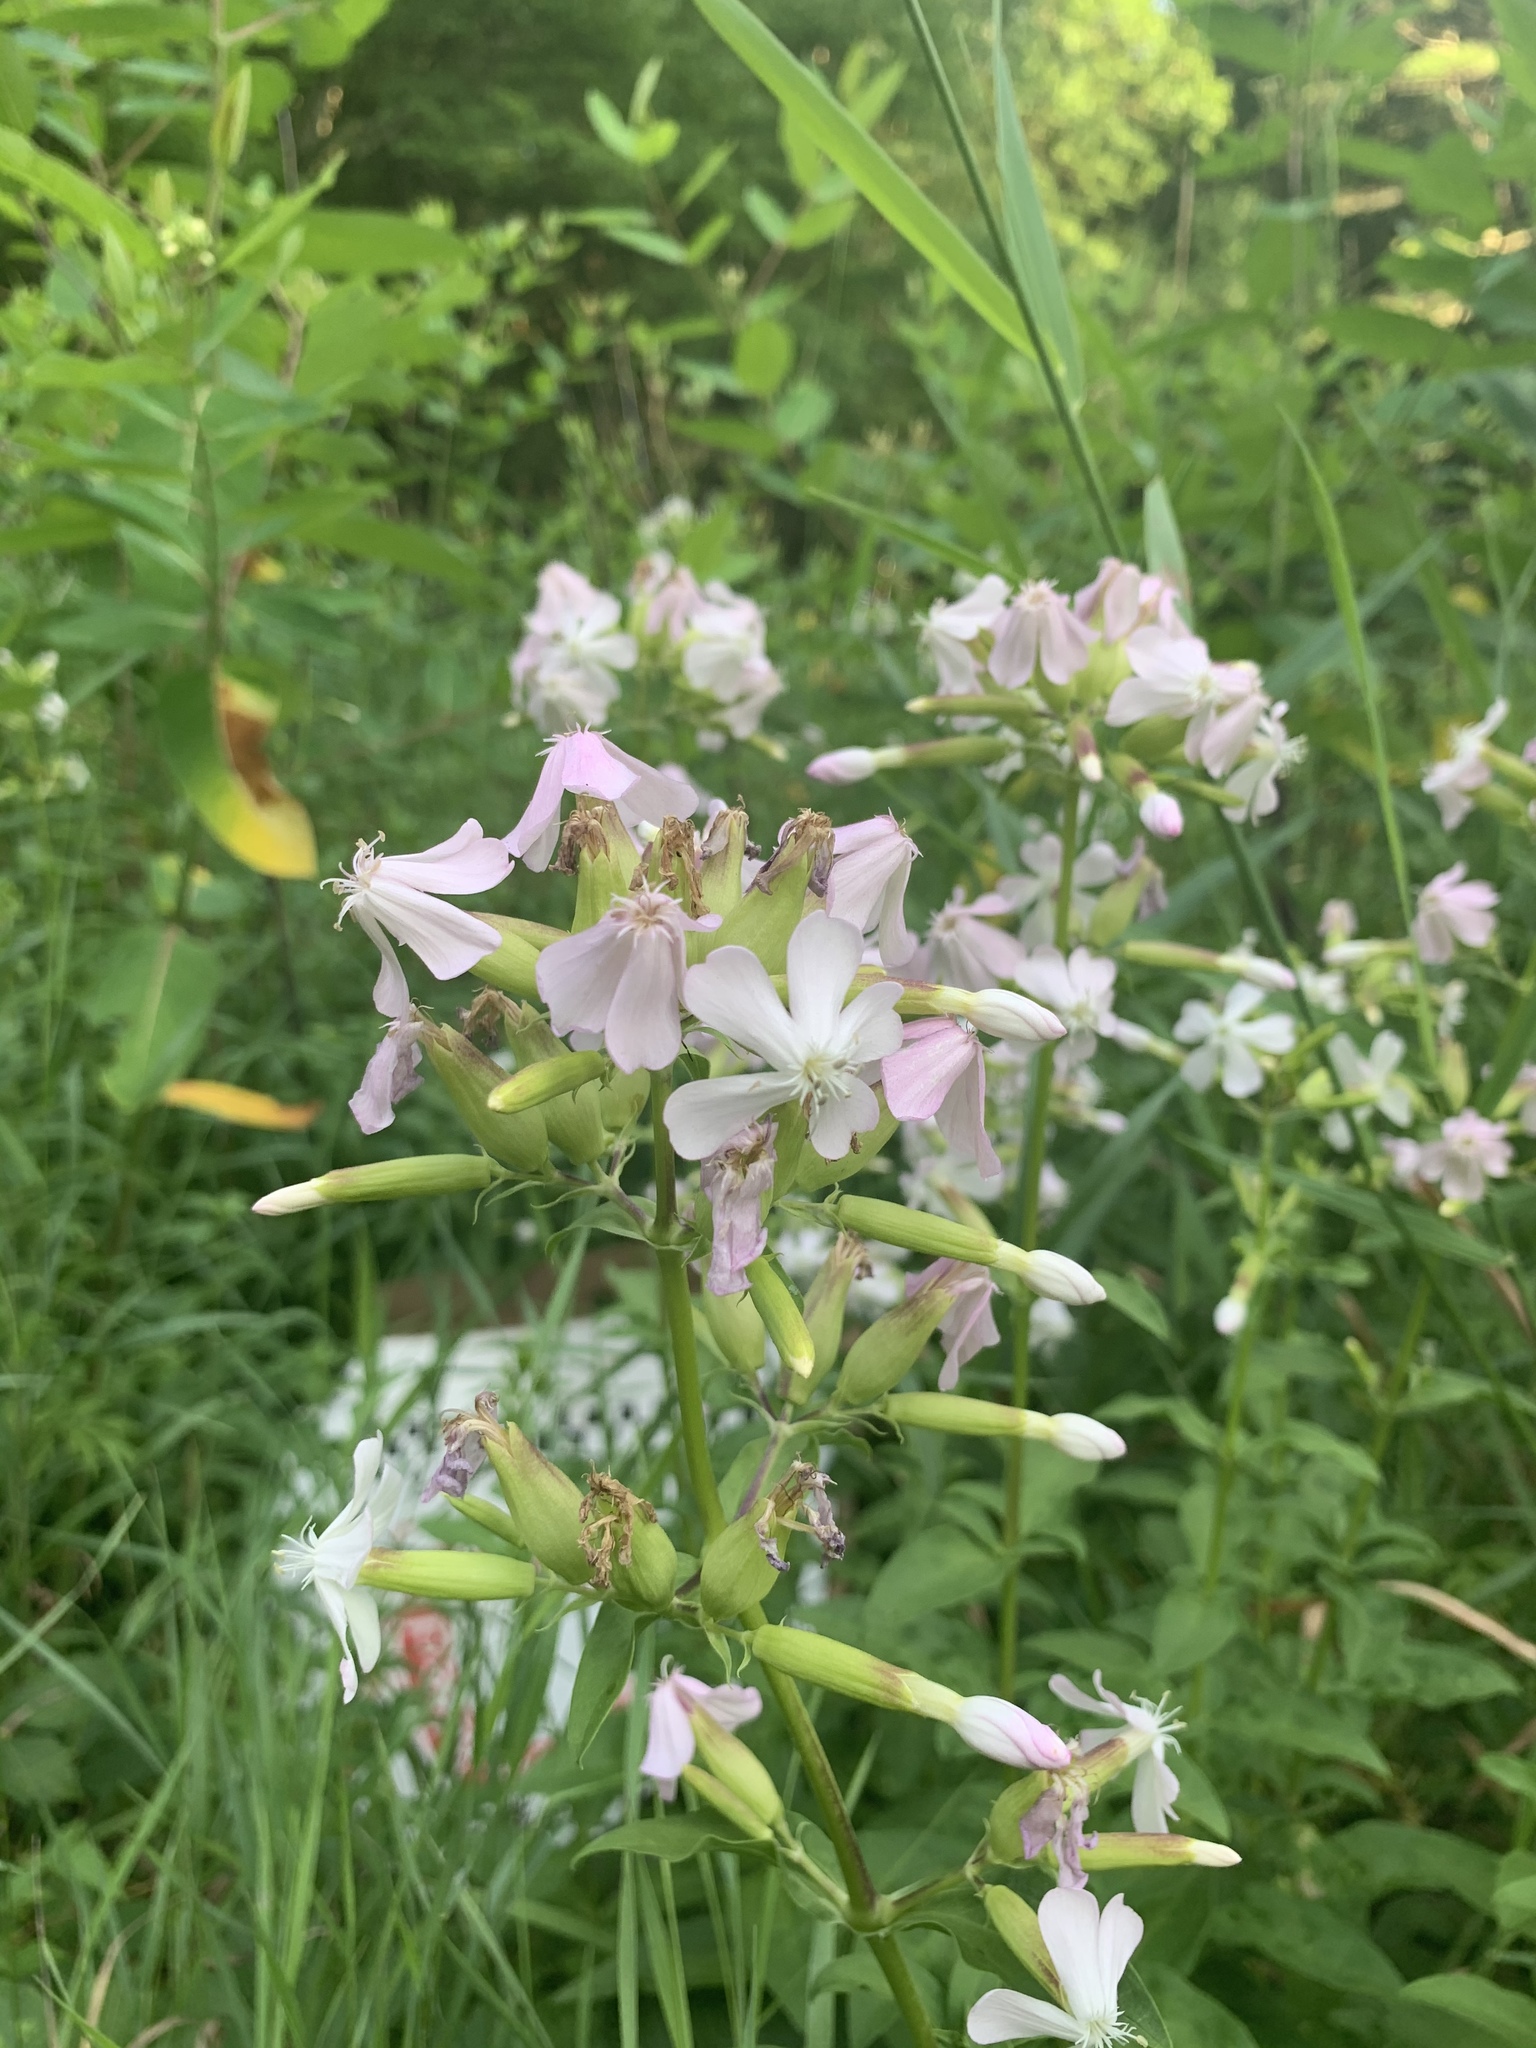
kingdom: Plantae
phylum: Tracheophyta
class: Magnoliopsida
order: Caryophyllales
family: Caryophyllaceae
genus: Saponaria
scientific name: Saponaria officinalis
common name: Soapwort
